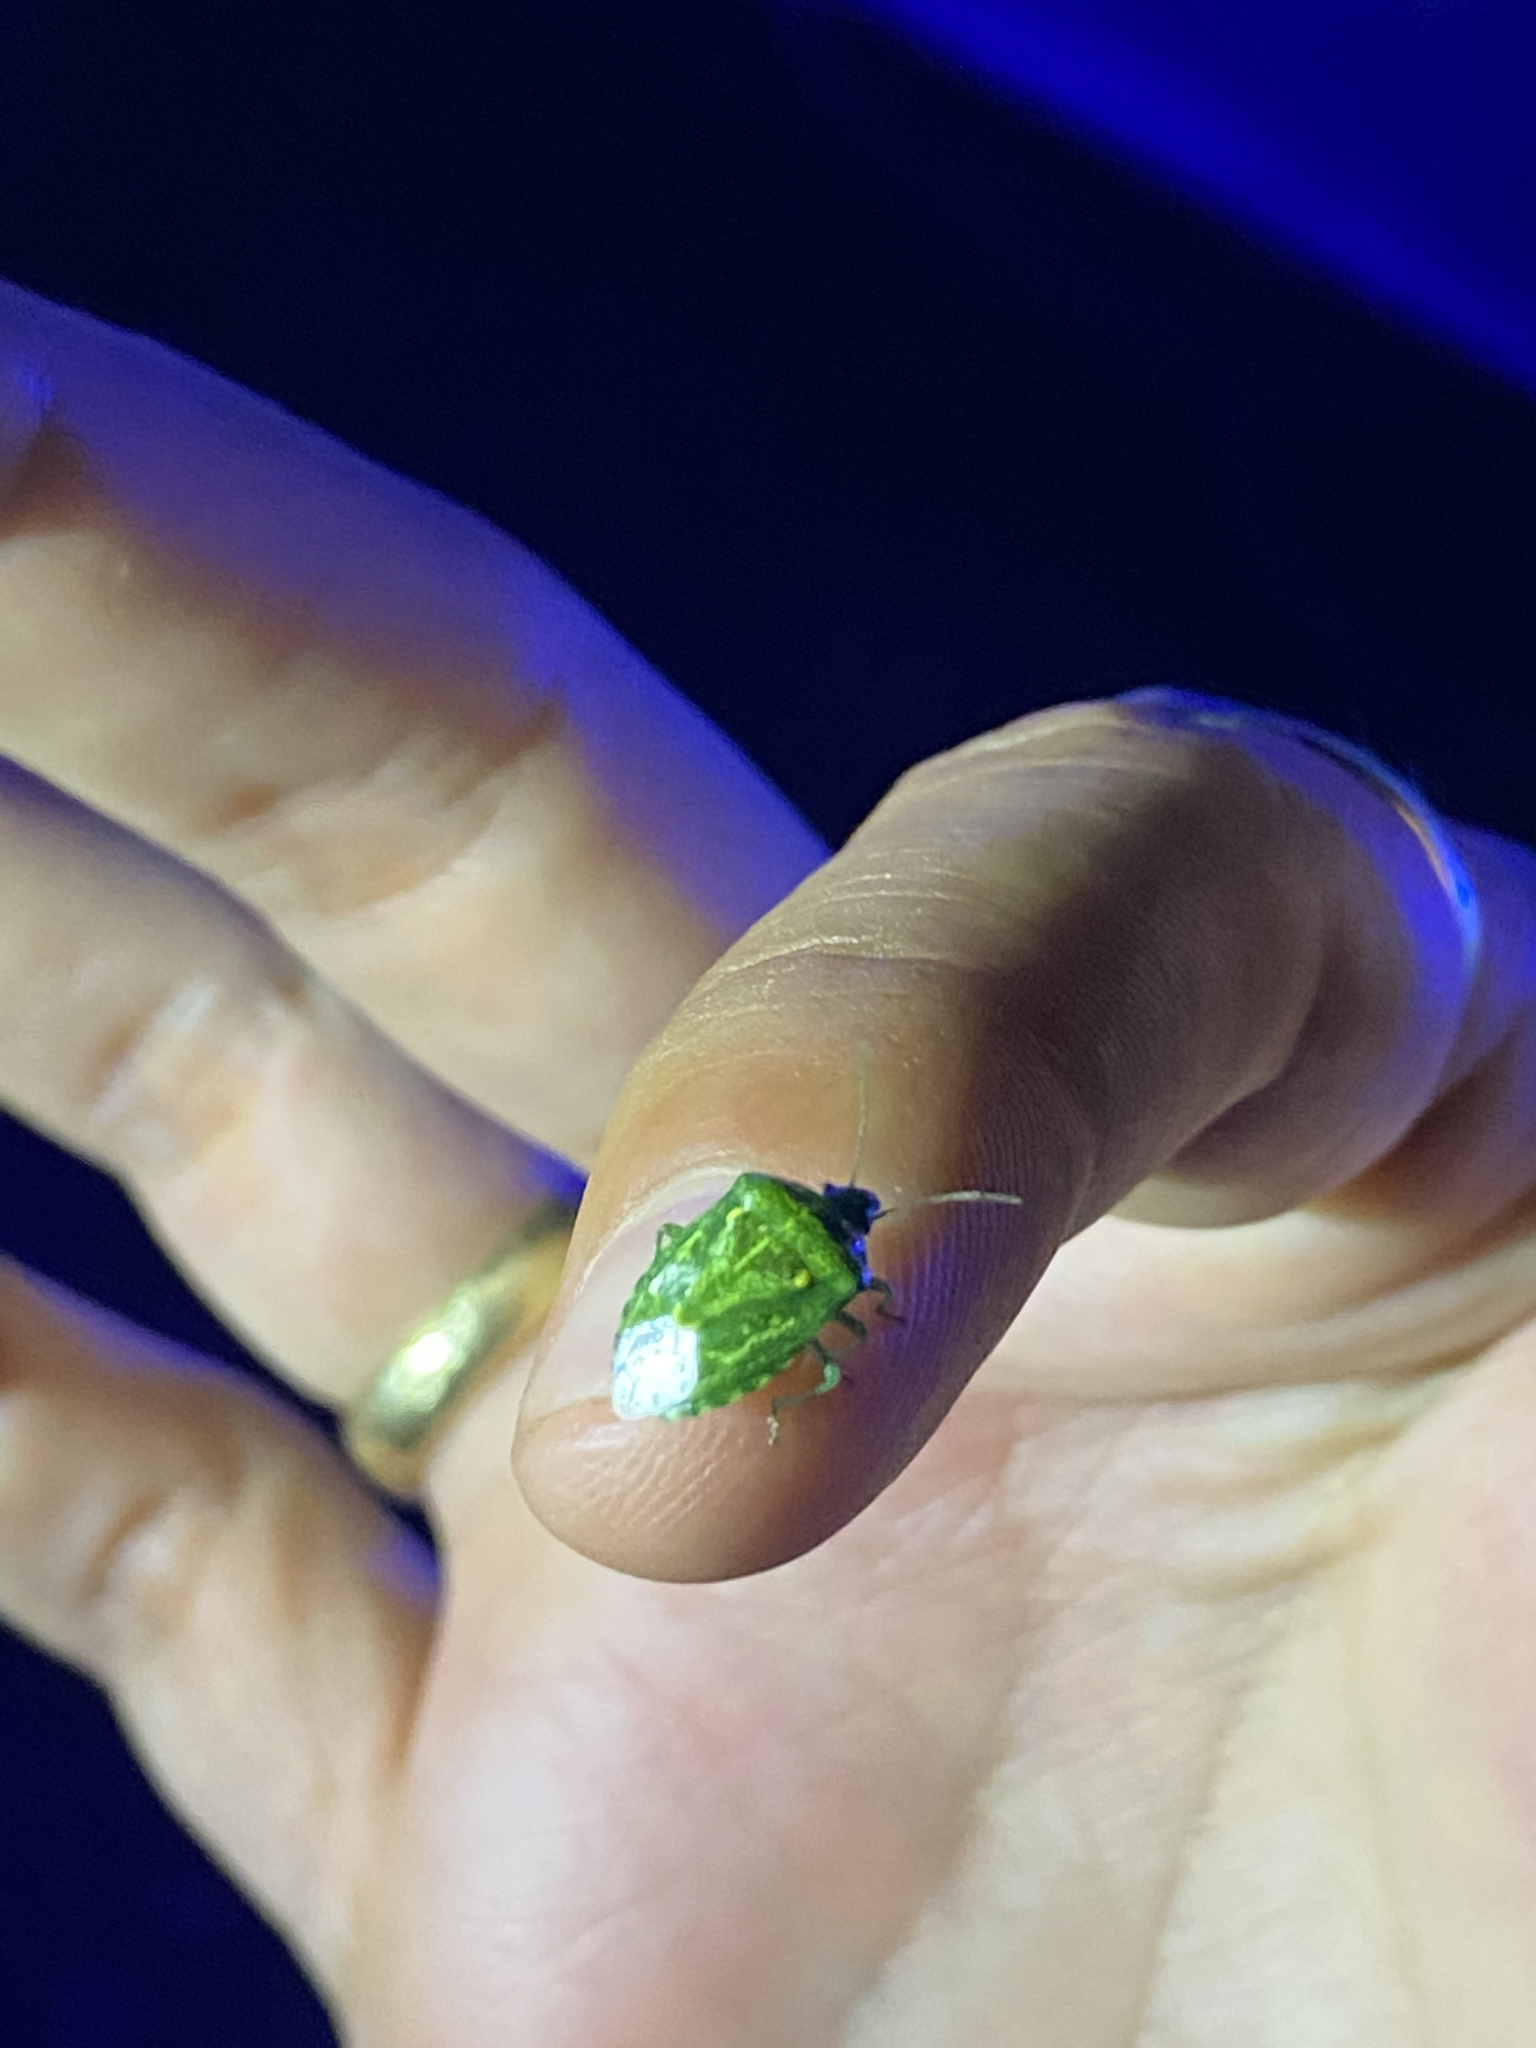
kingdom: Animalia
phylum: Arthropoda
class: Insecta
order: Hemiptera
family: Pentatomidae
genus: Banasa
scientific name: Banasa euchlora
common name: Cedar berry bug
